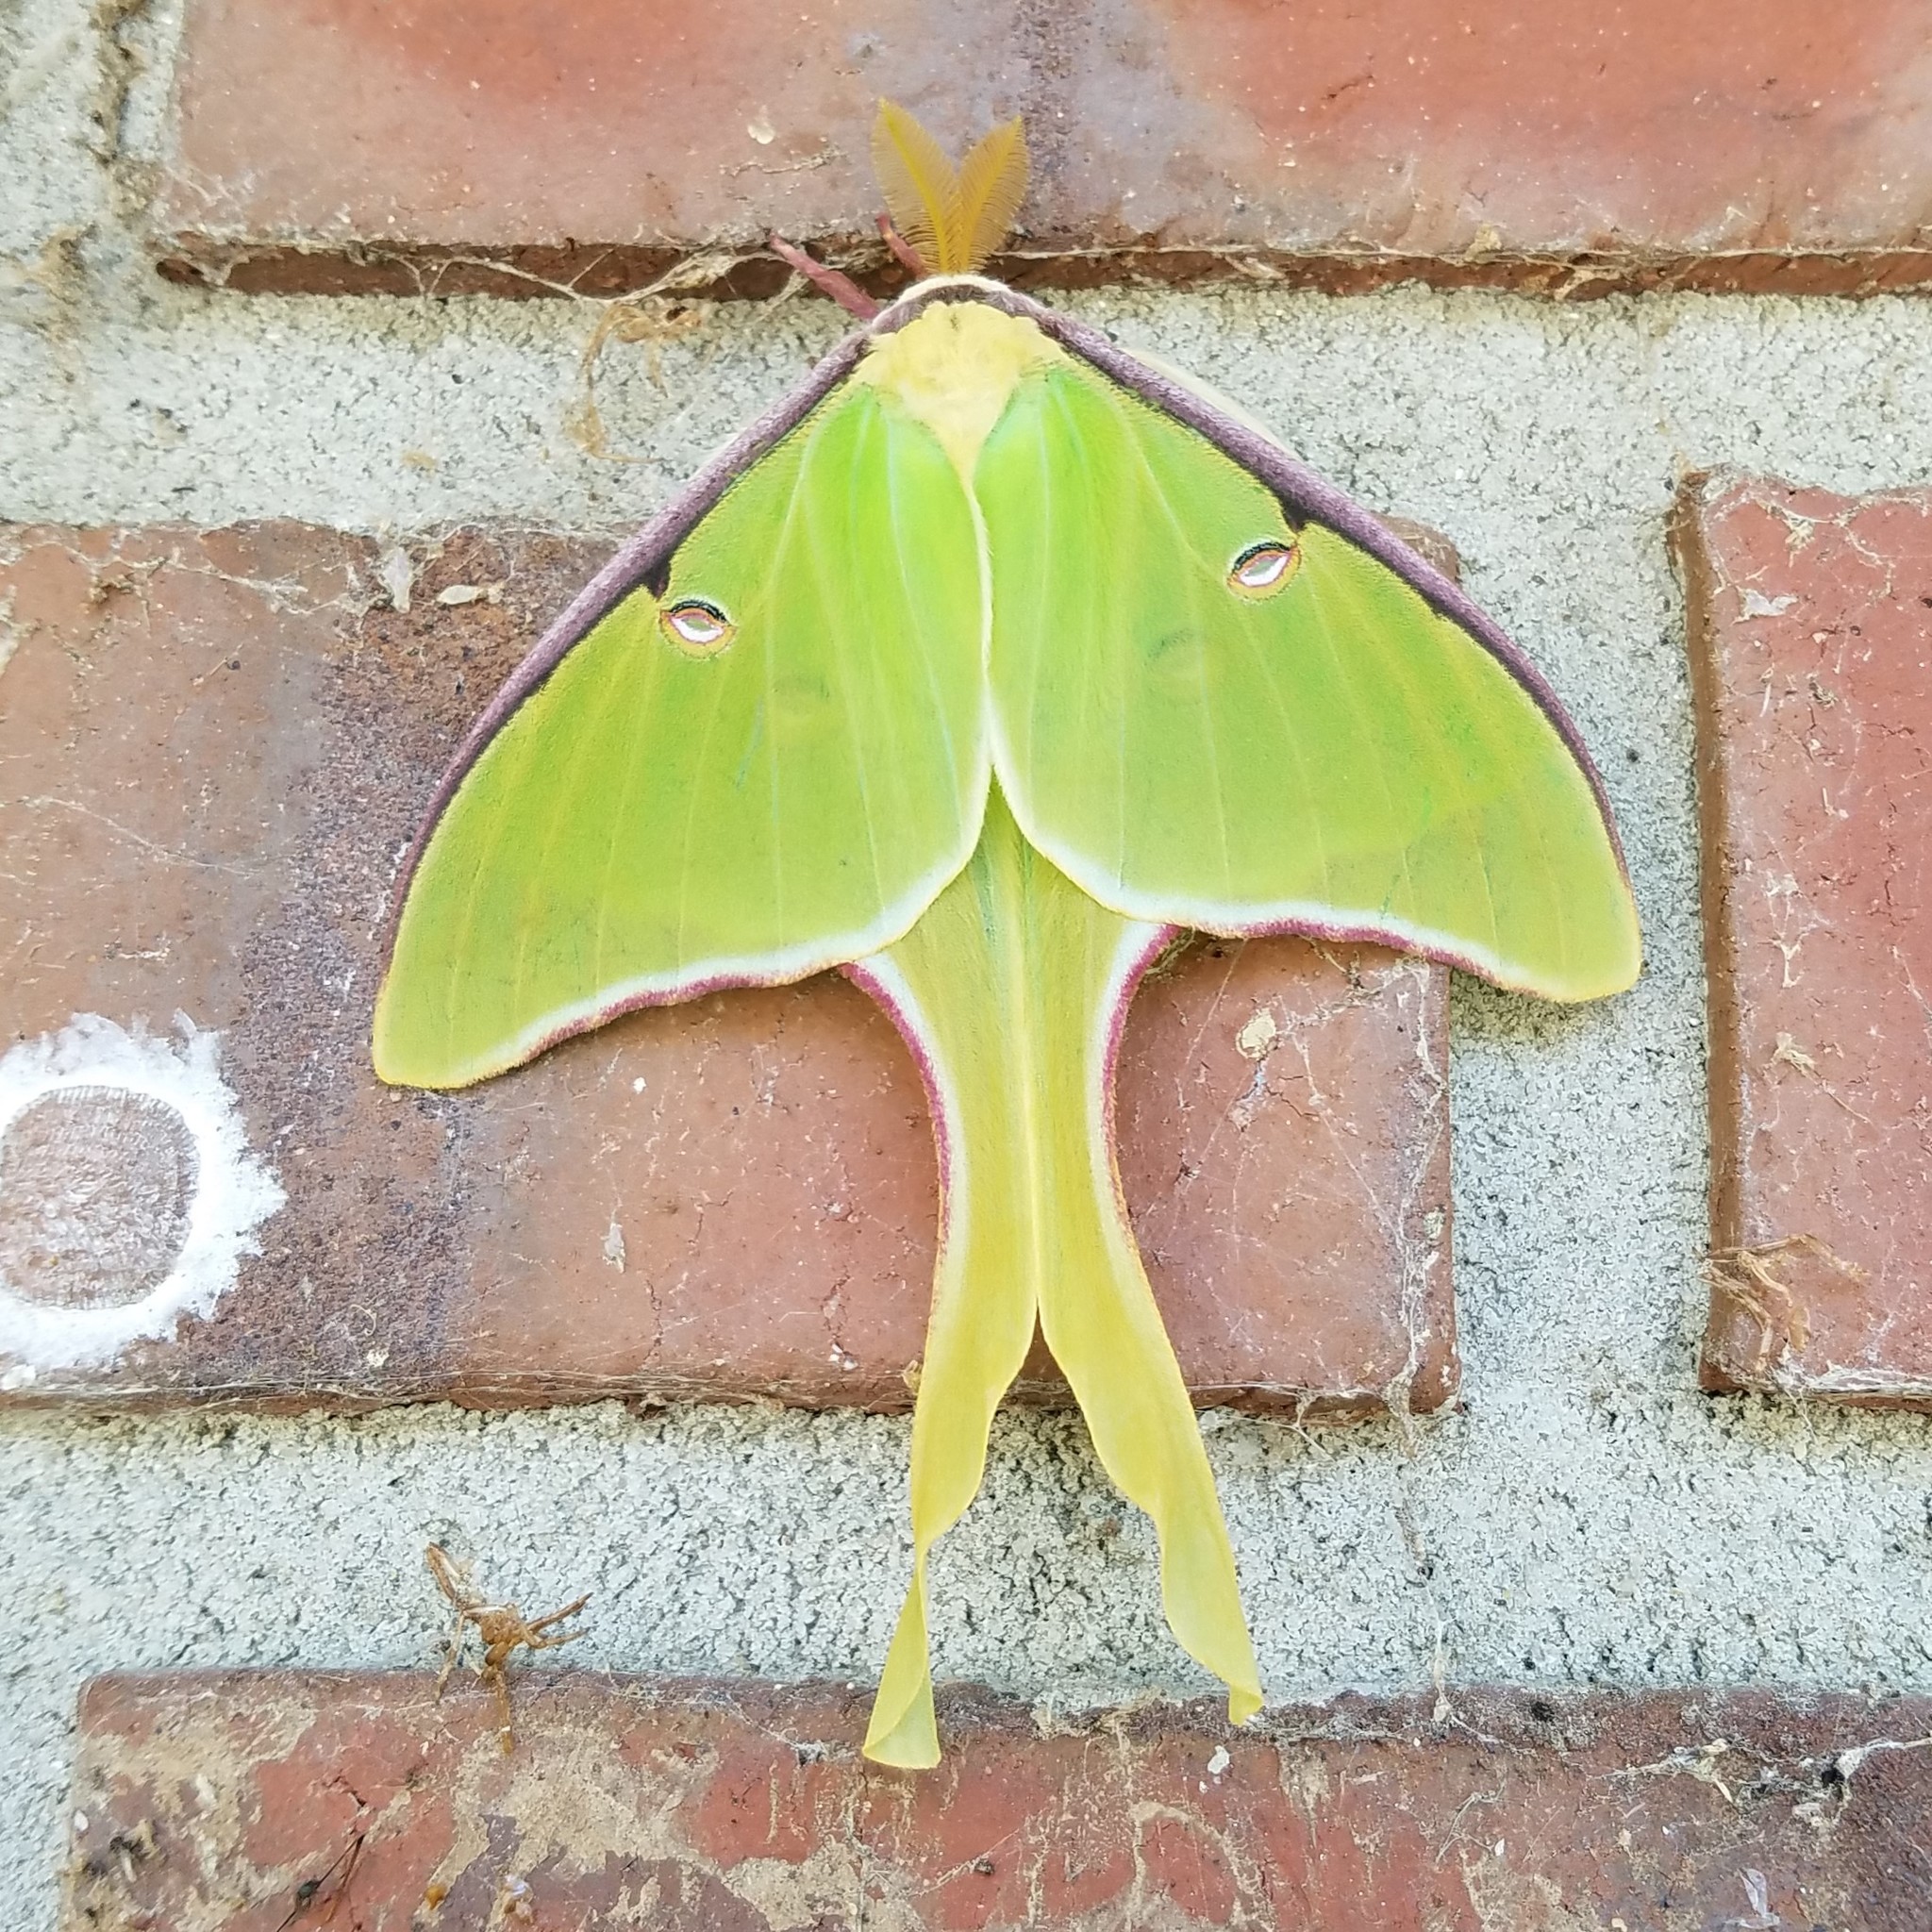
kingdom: Animalia
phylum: Arthropoda
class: Insecta
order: Lepidoptera
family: Saturniidae
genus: Actias
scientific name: Actias luna
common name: Luna moth
